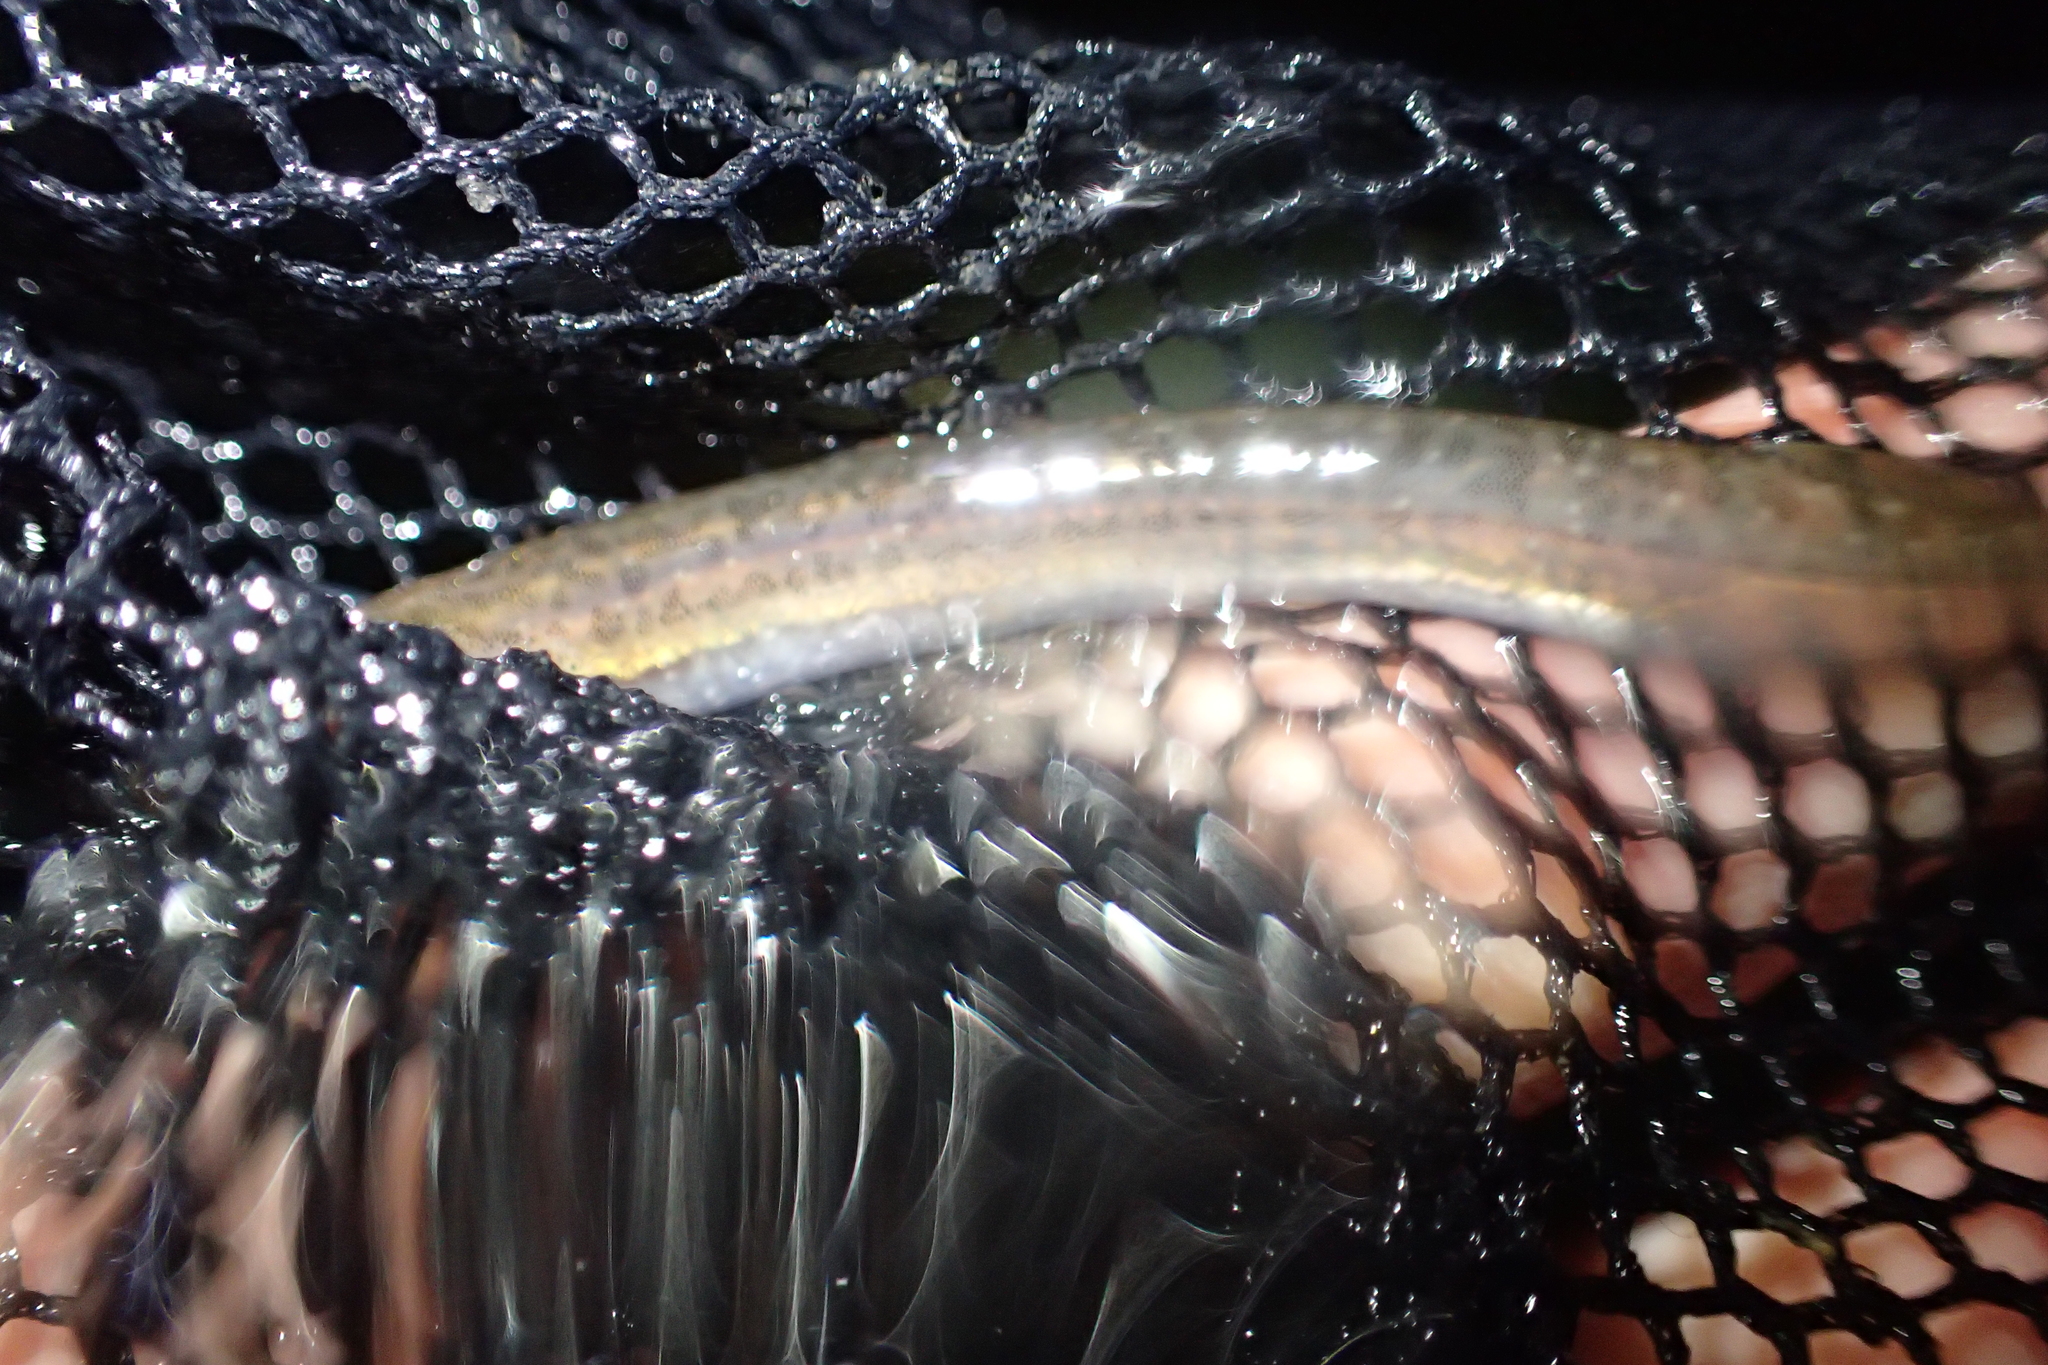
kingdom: Animalia
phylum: Chordata
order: Osmeriformes
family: Galaxiidae
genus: Galaxias
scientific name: Galaxias maculatus
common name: Common galaxias
